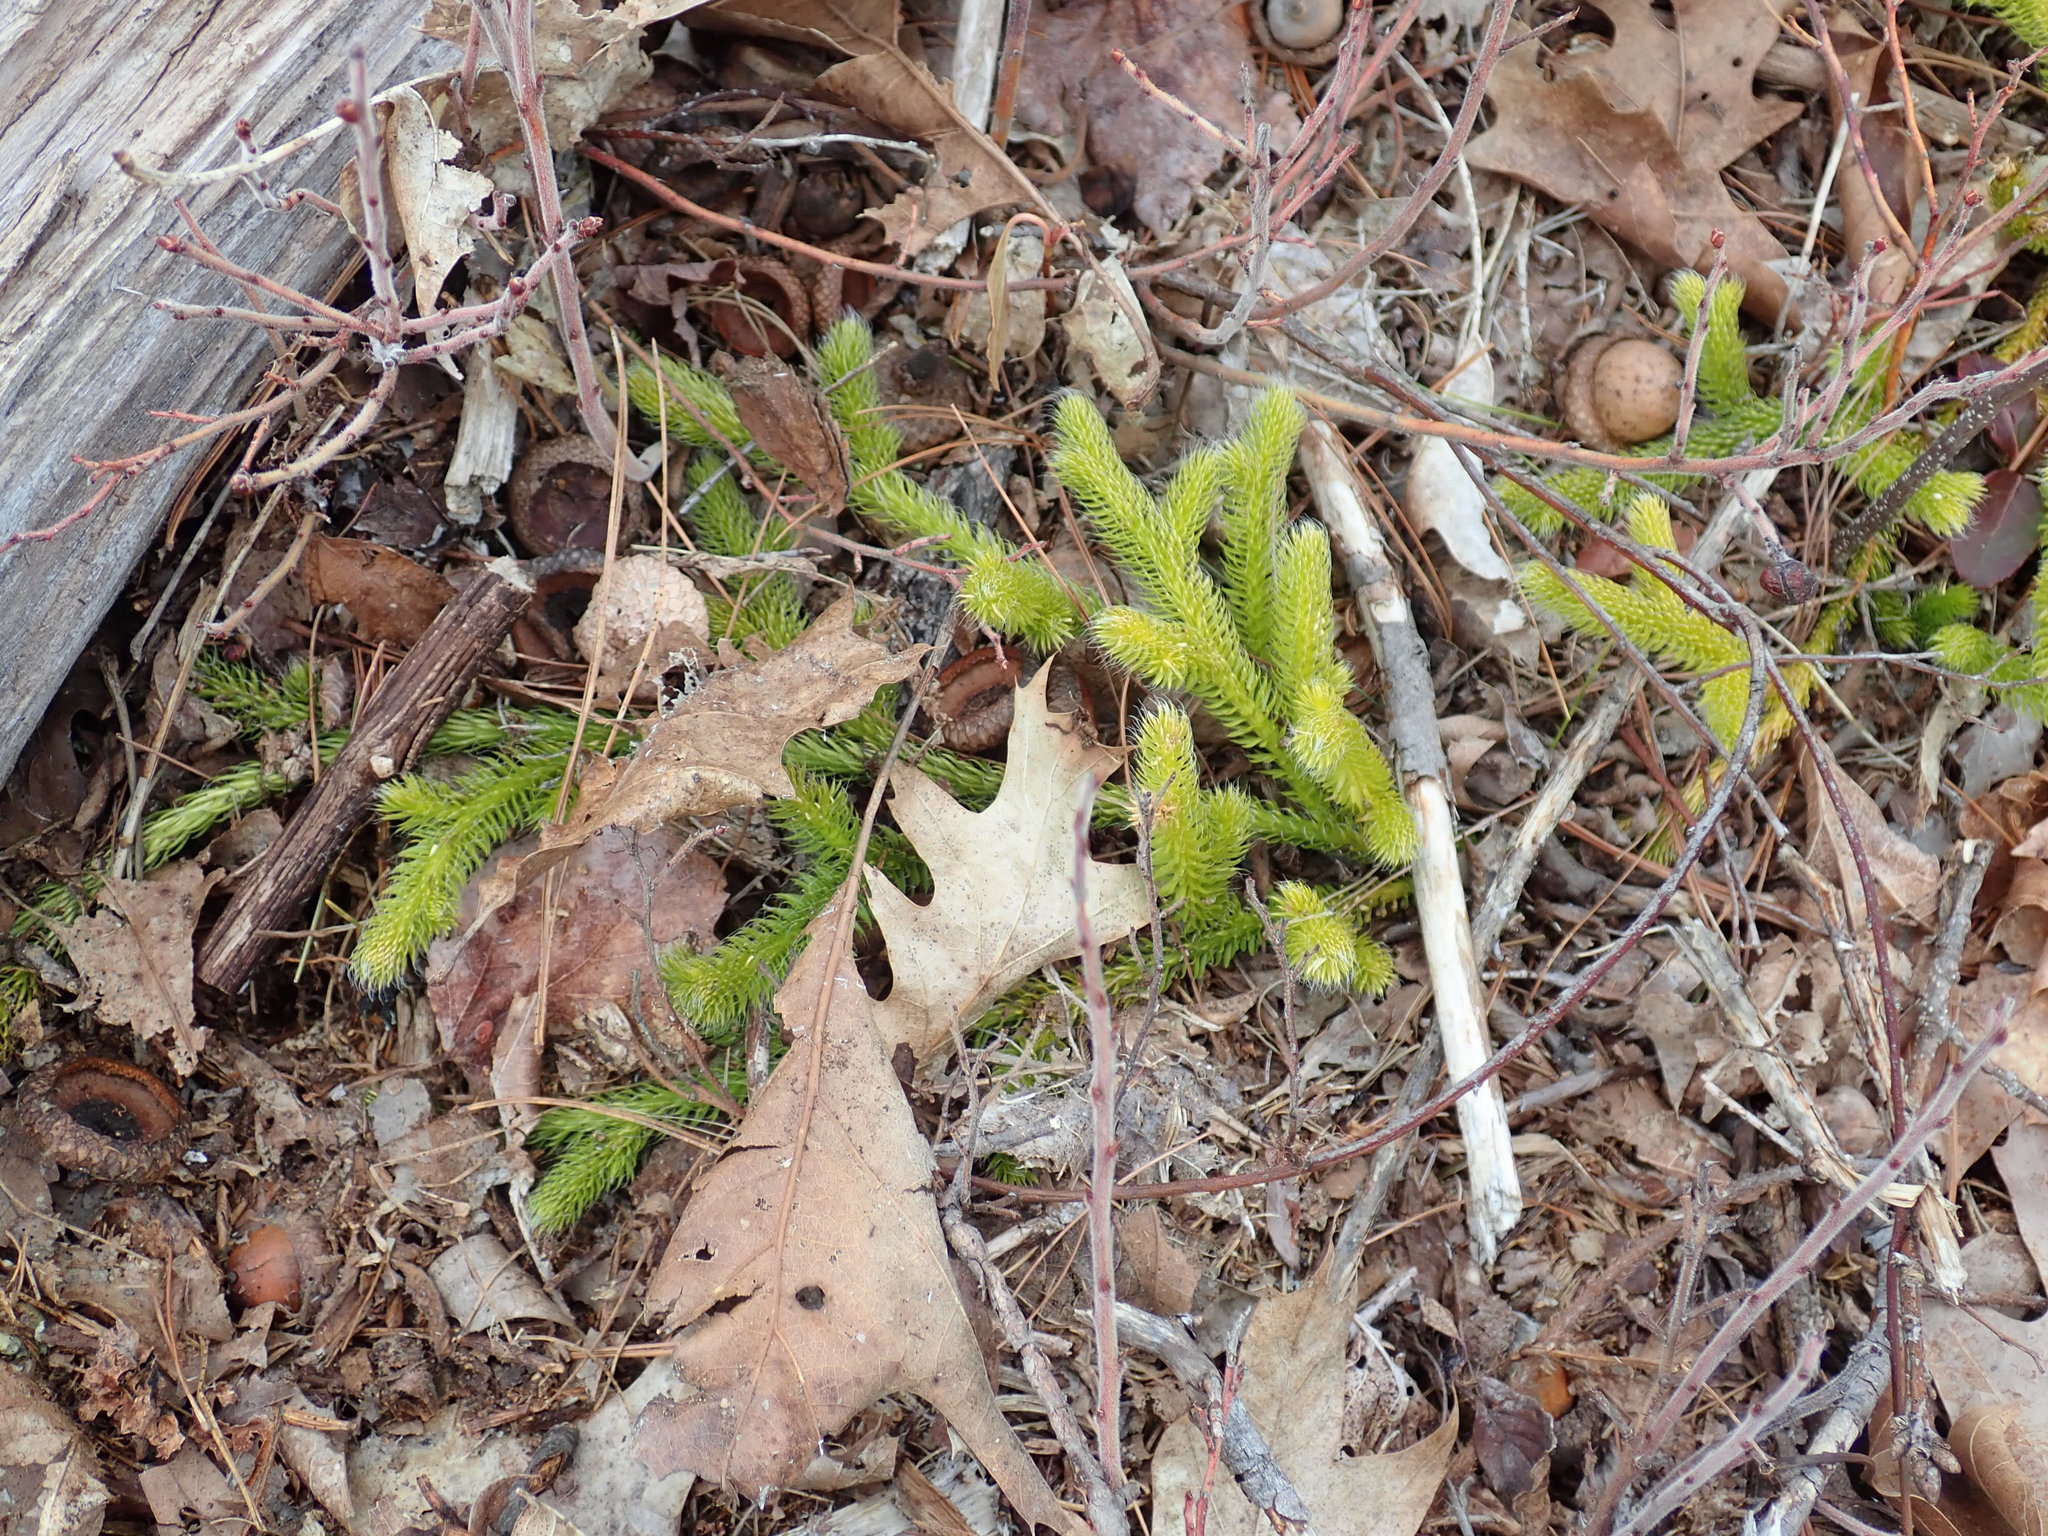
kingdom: Plantae
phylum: Tracheophyta
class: Lycopodiopsida
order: Lycopodiales
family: Lycopodiaceae
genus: Lycopodium
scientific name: Lycopodium clavatum
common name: Stag's-horn clubmoss
